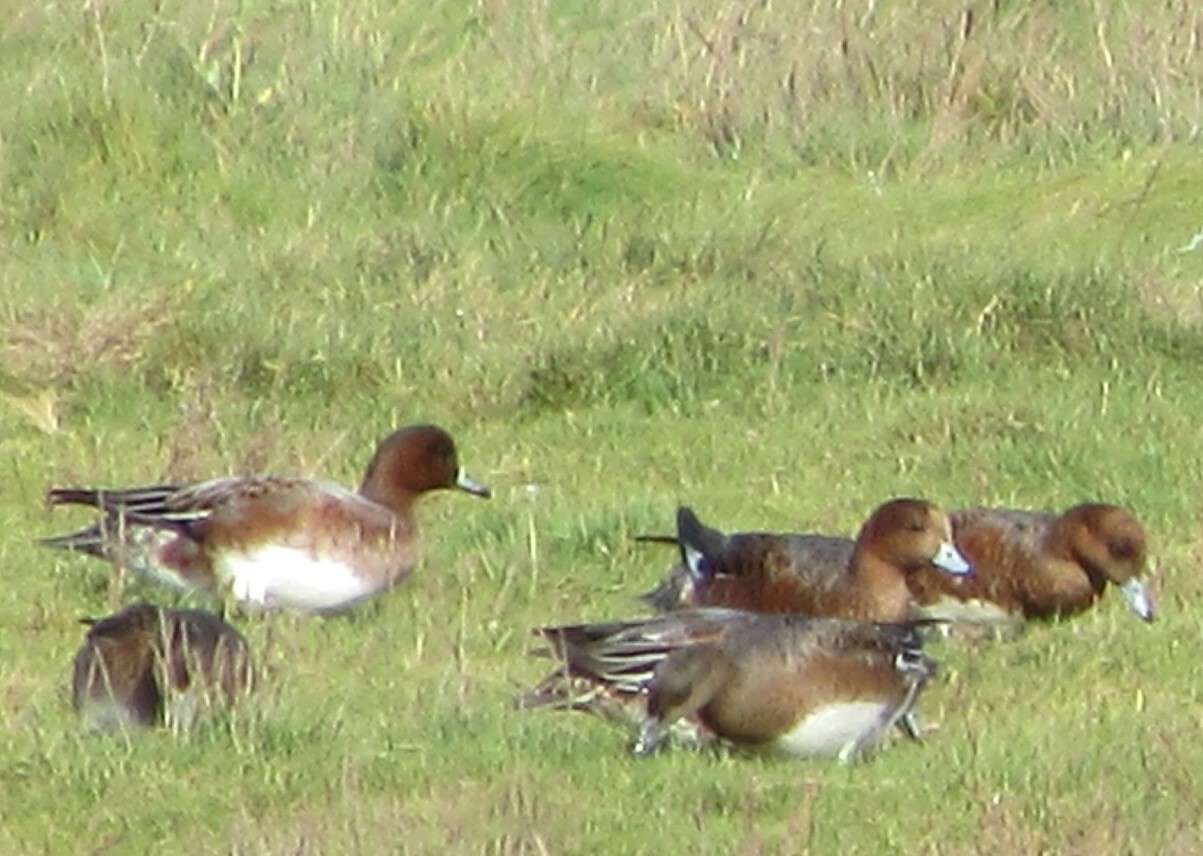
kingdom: Animalia
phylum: Chordata
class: Aves
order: Anseriformes
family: Anatidae
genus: Mareca
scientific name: Mareca penelope
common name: Eurasian wigeon
